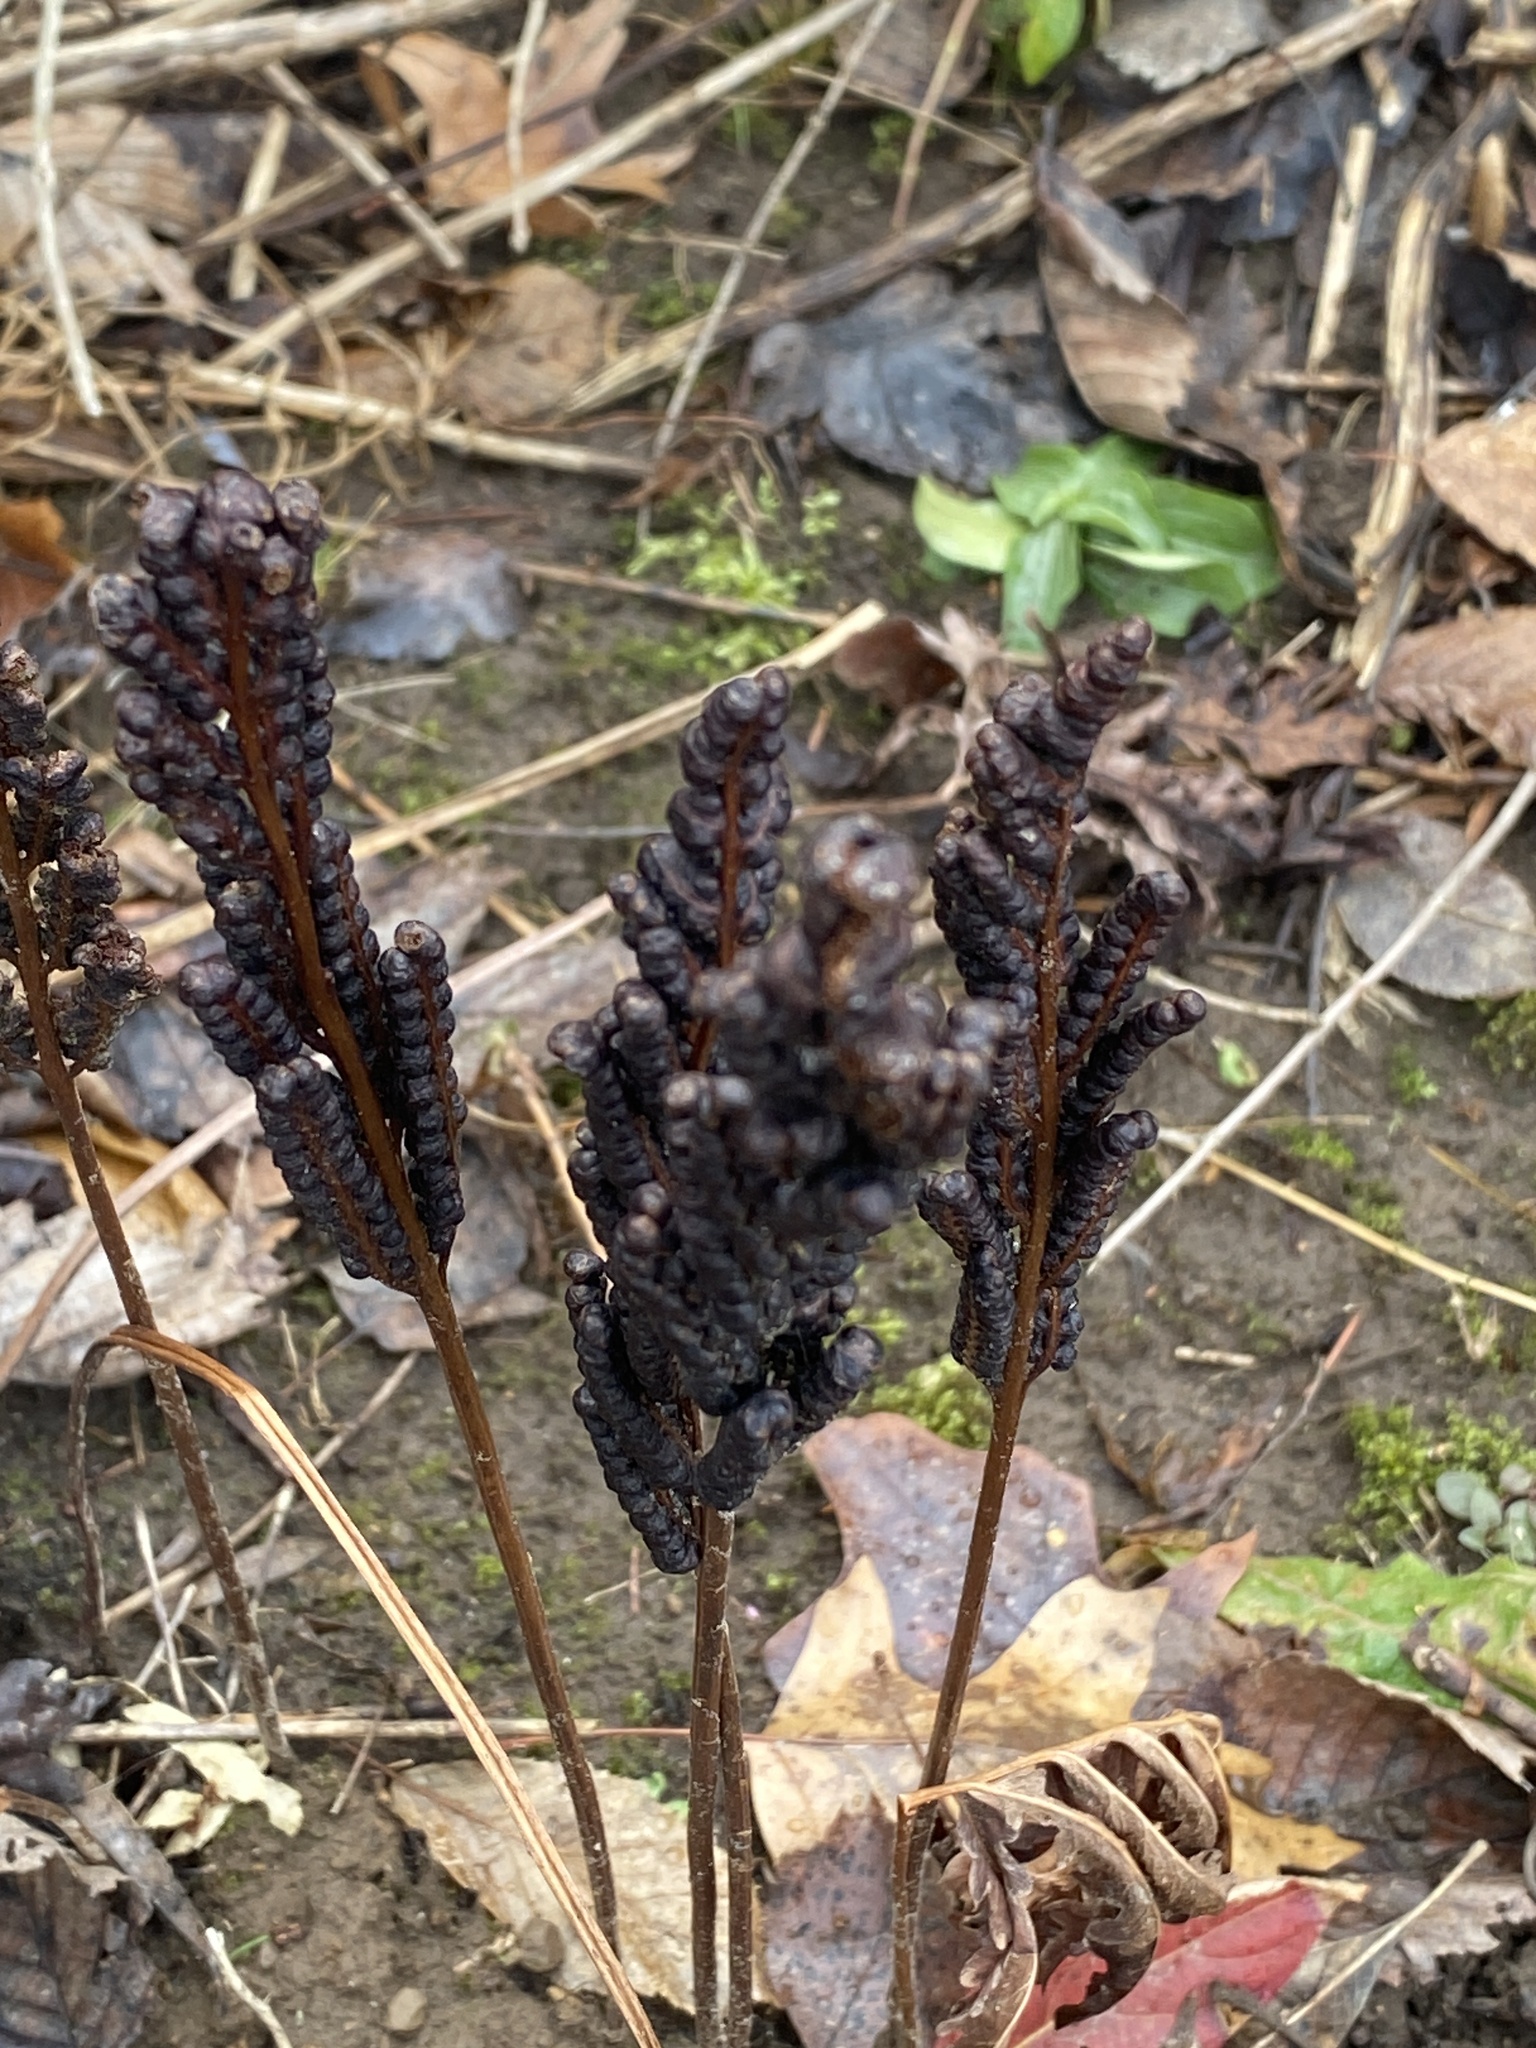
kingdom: Plantae
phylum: Tracheophyta
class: Polypodiopsida
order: Polypodiales
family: Onocleaceae
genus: Onoclea
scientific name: Onoclea sensibilis
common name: Sensitive fern
